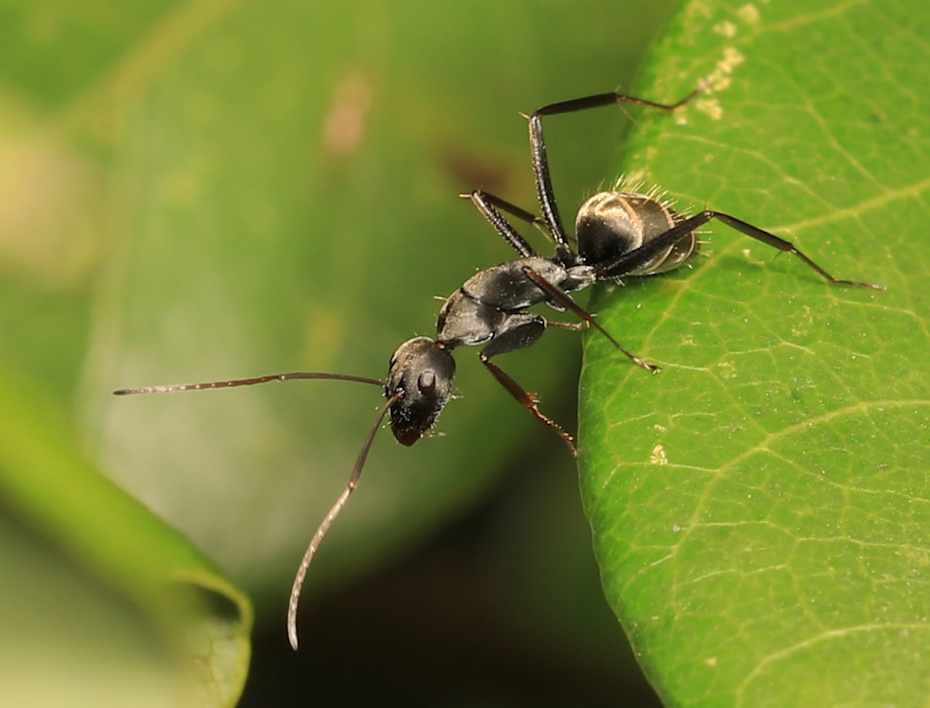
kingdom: Animalia
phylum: Arthropoda
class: Insecta
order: Hymenoptera
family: Formicidae
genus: Camponotus
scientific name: Camponotus cosmicus
